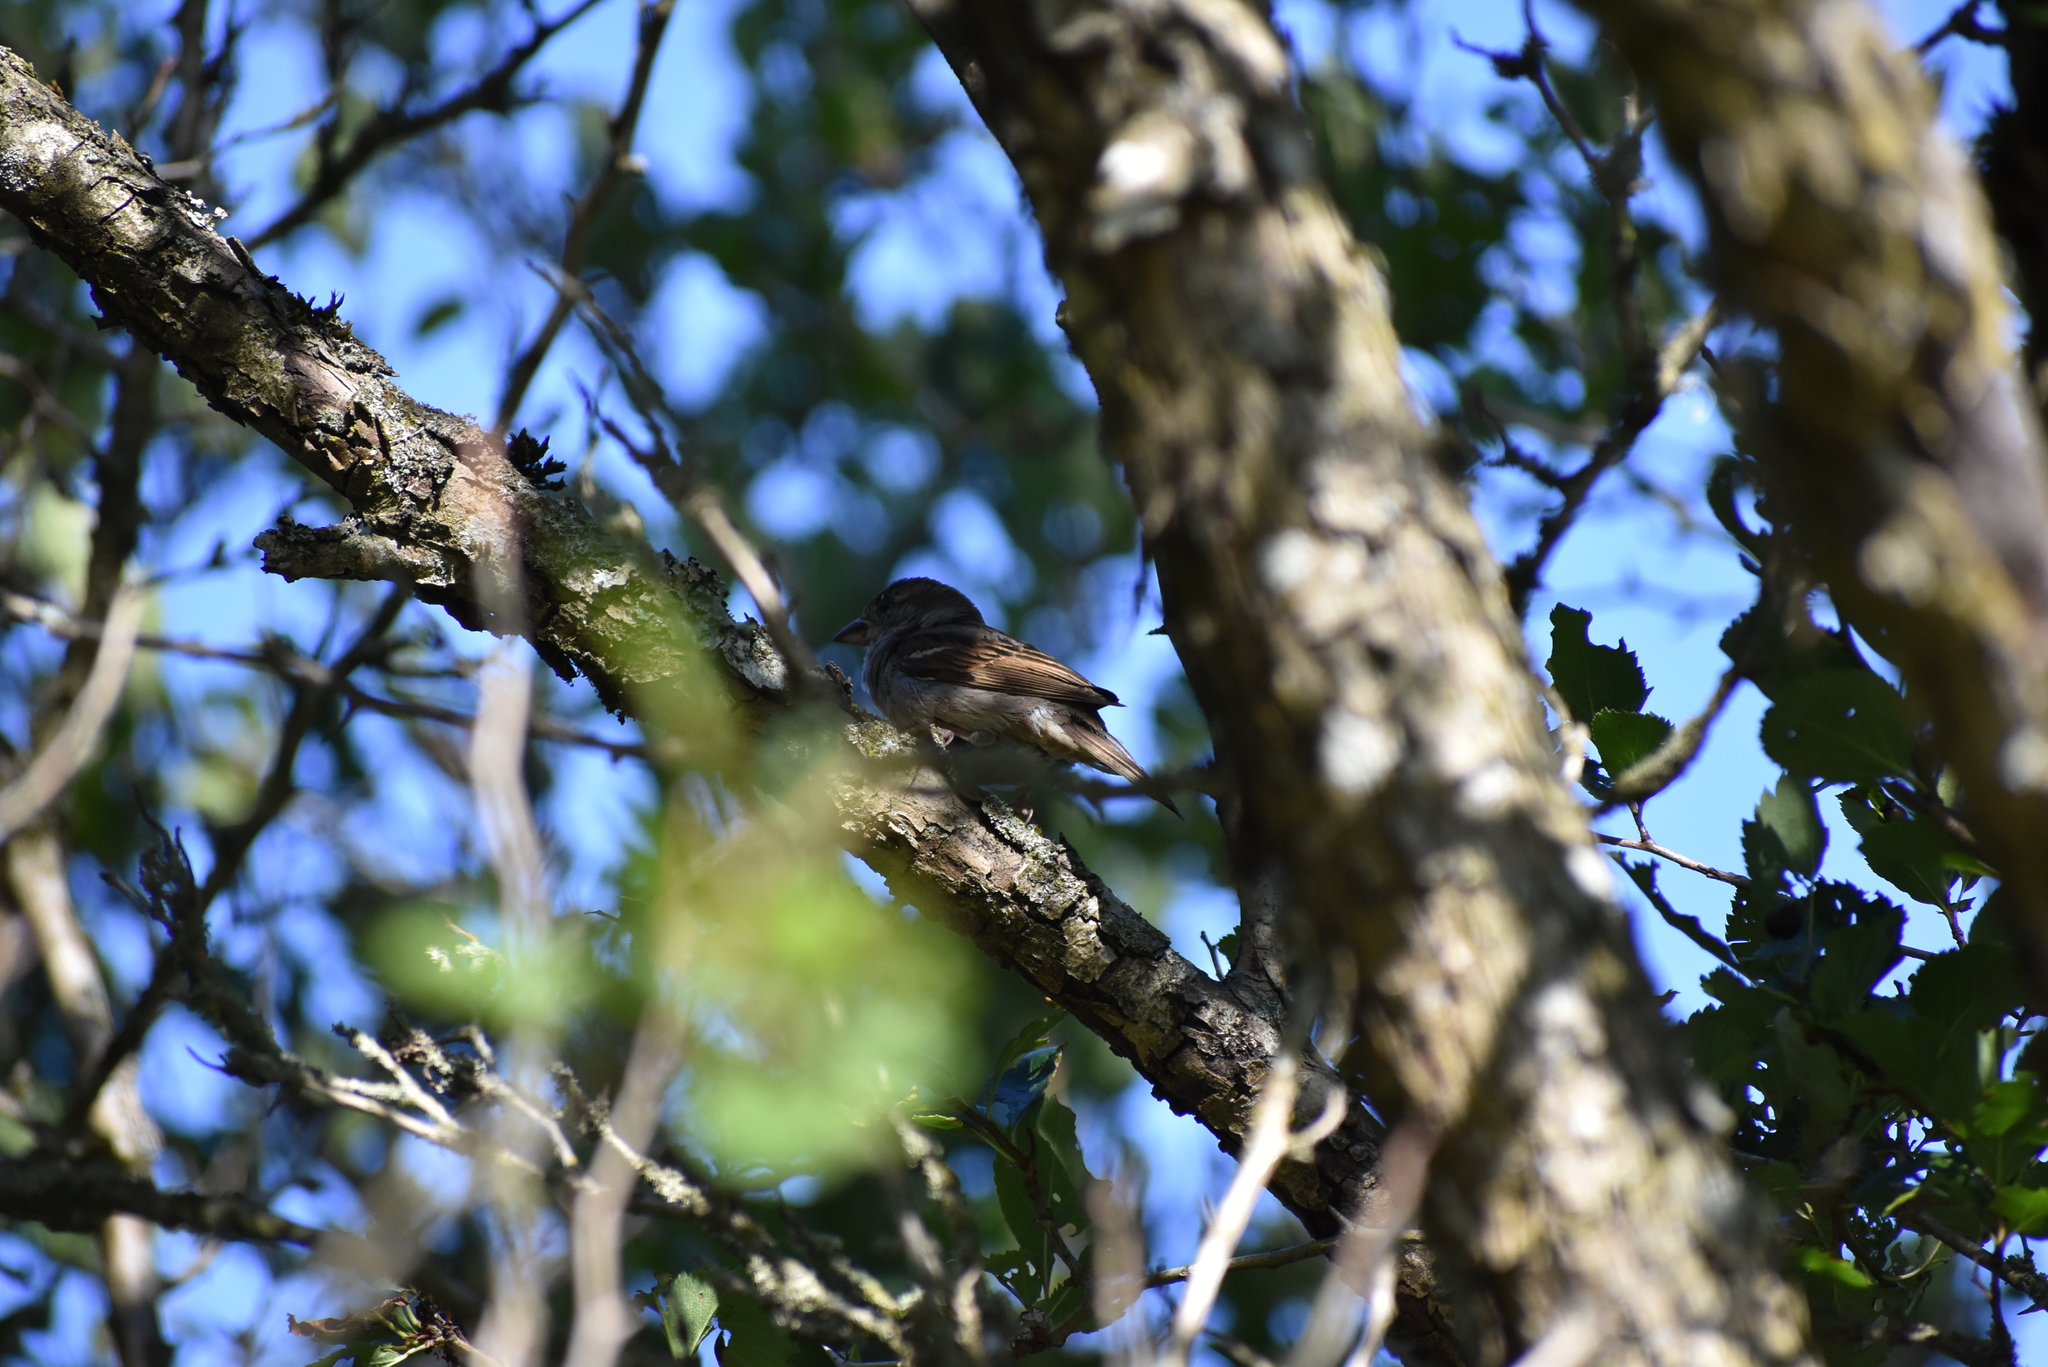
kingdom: Animalia
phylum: Chordata
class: Aves
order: Passeriformes
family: Passeridae
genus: Passer
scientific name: Passer domesticus
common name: House sparrow
